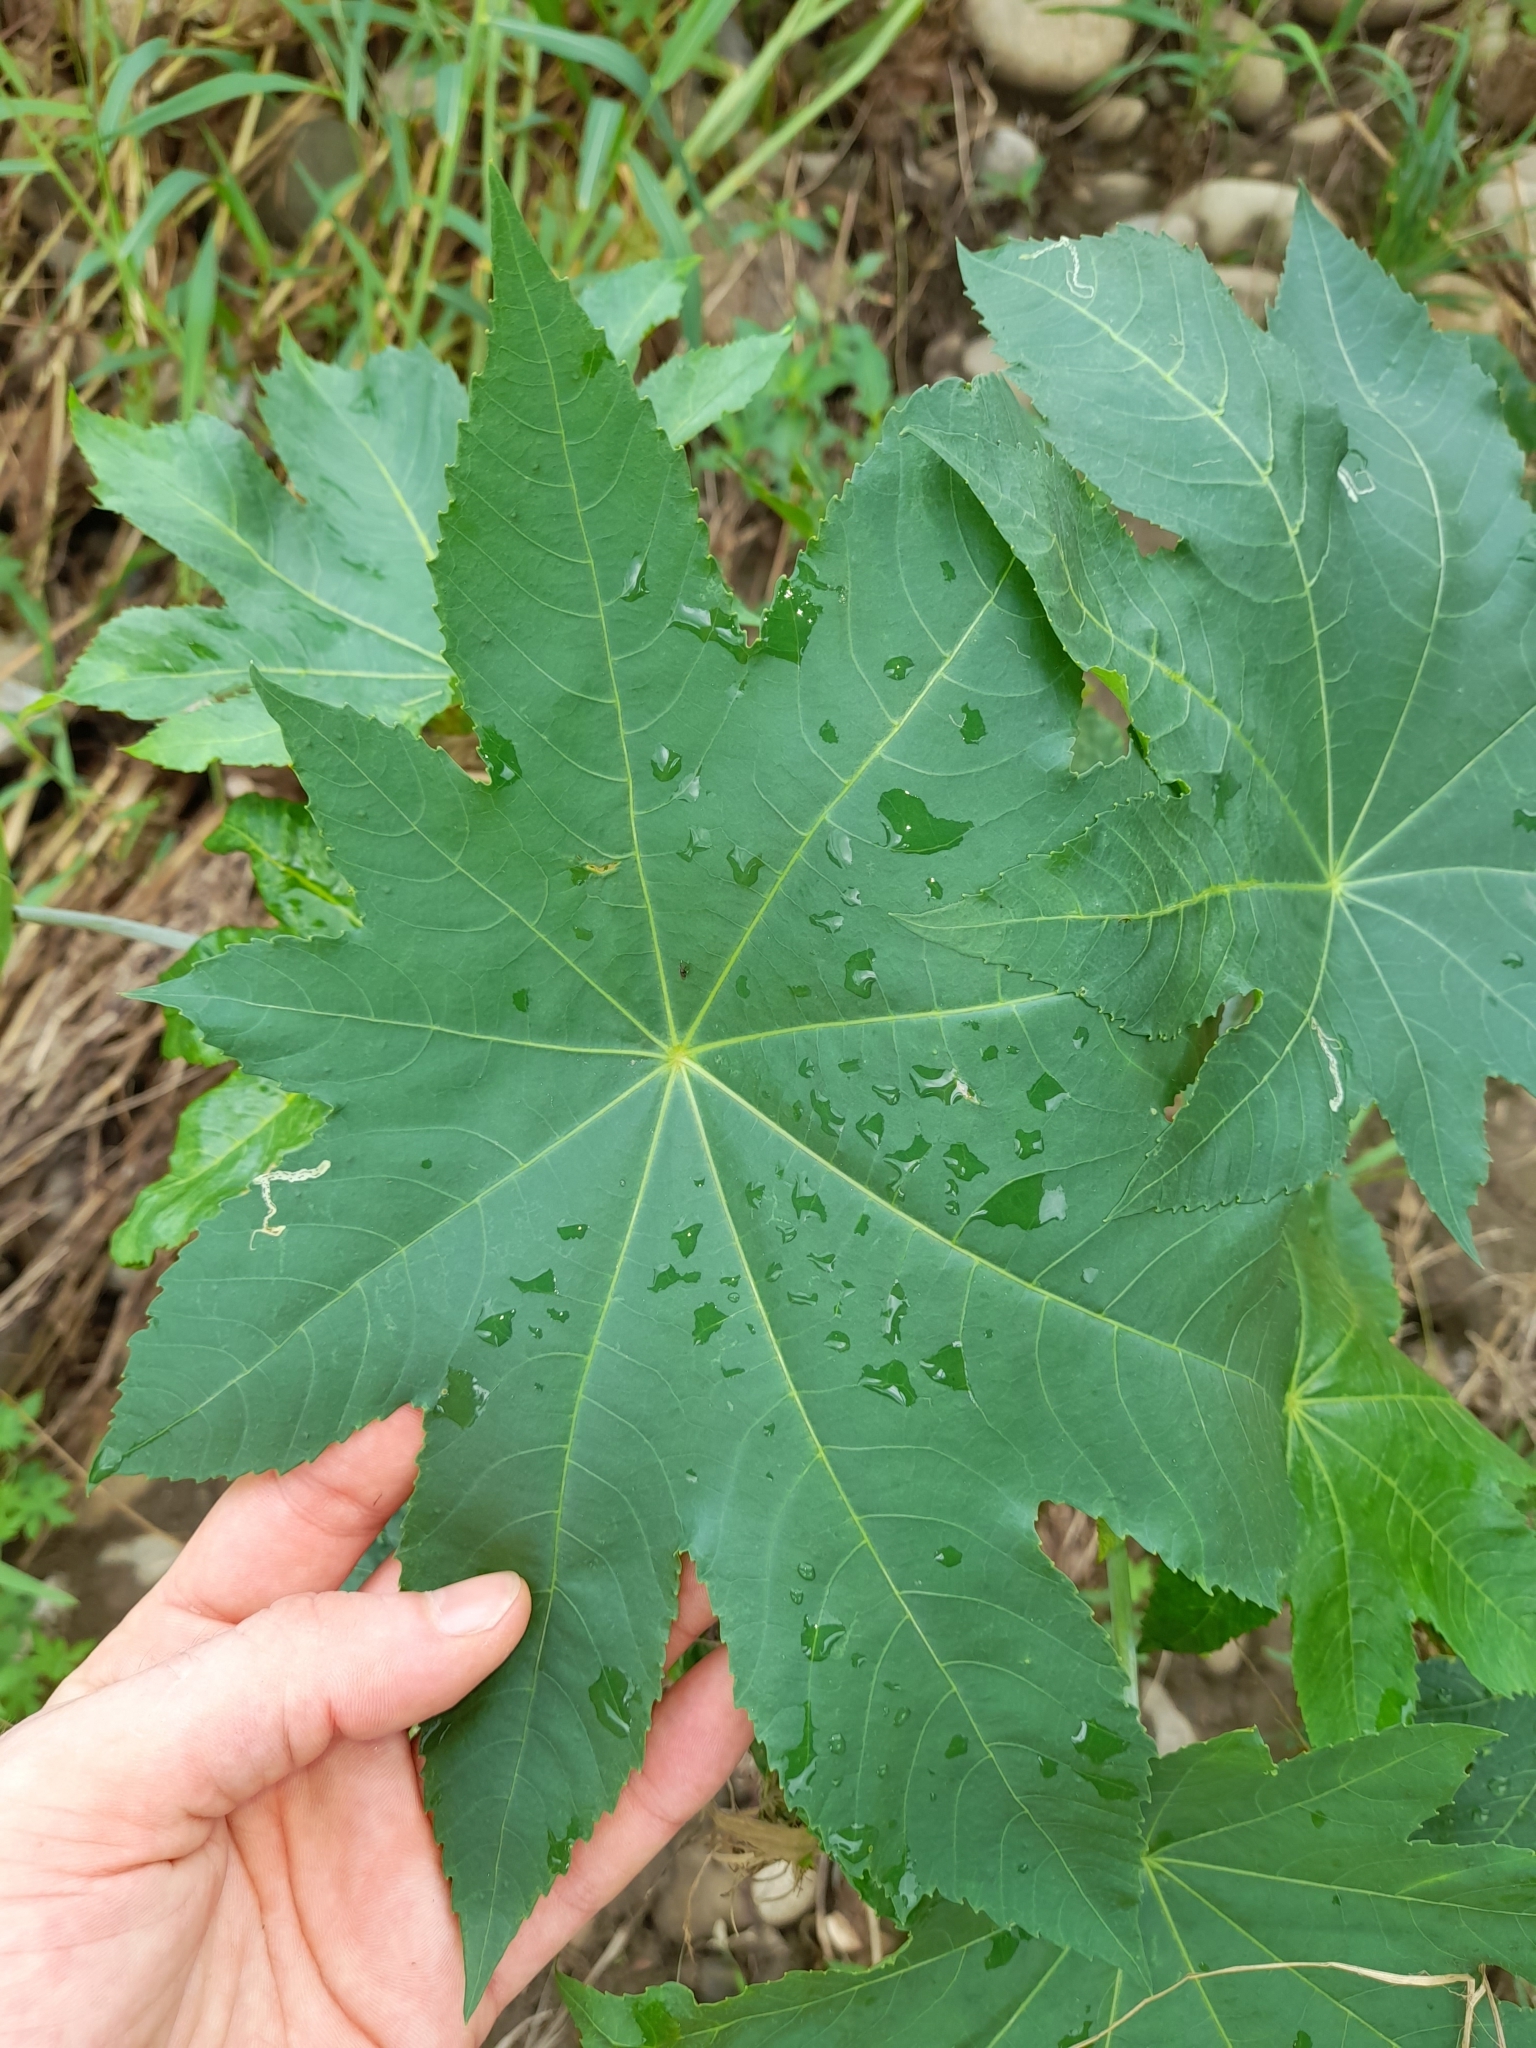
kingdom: Plantae
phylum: Tracheophyta
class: Magnoliopsida
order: Malpighiales
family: Euphorbiaceae
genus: Ricinus
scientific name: Ricinus communis
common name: Castor-oil-plant
